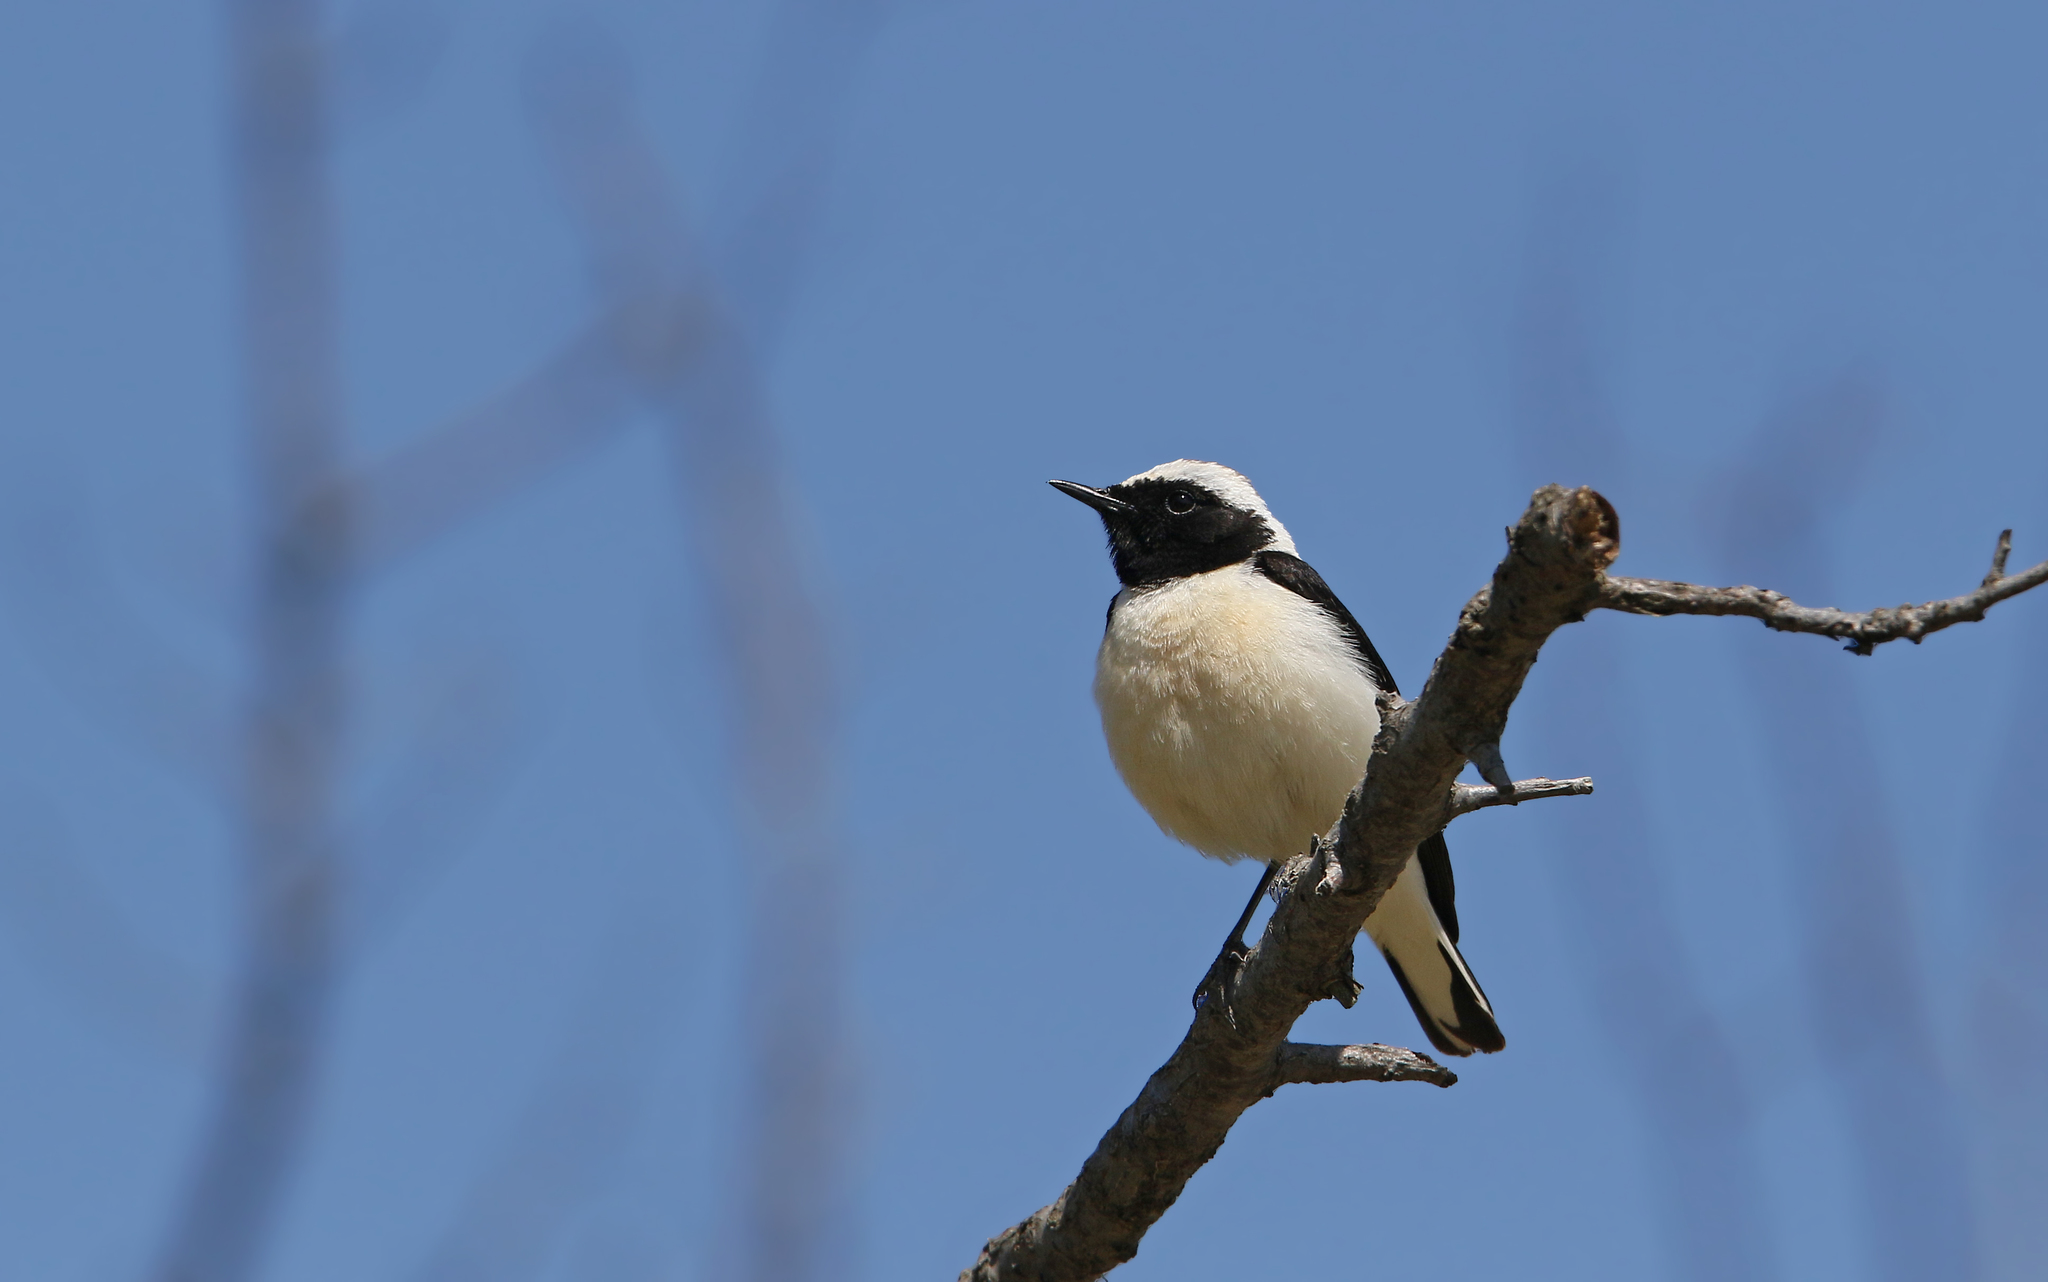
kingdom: Animalia
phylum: Chordata
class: Aves
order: Passeriformes
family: Muscicapidae
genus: Oenanthe
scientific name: Oenanthe hispanica
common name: Black-eared wheatear
